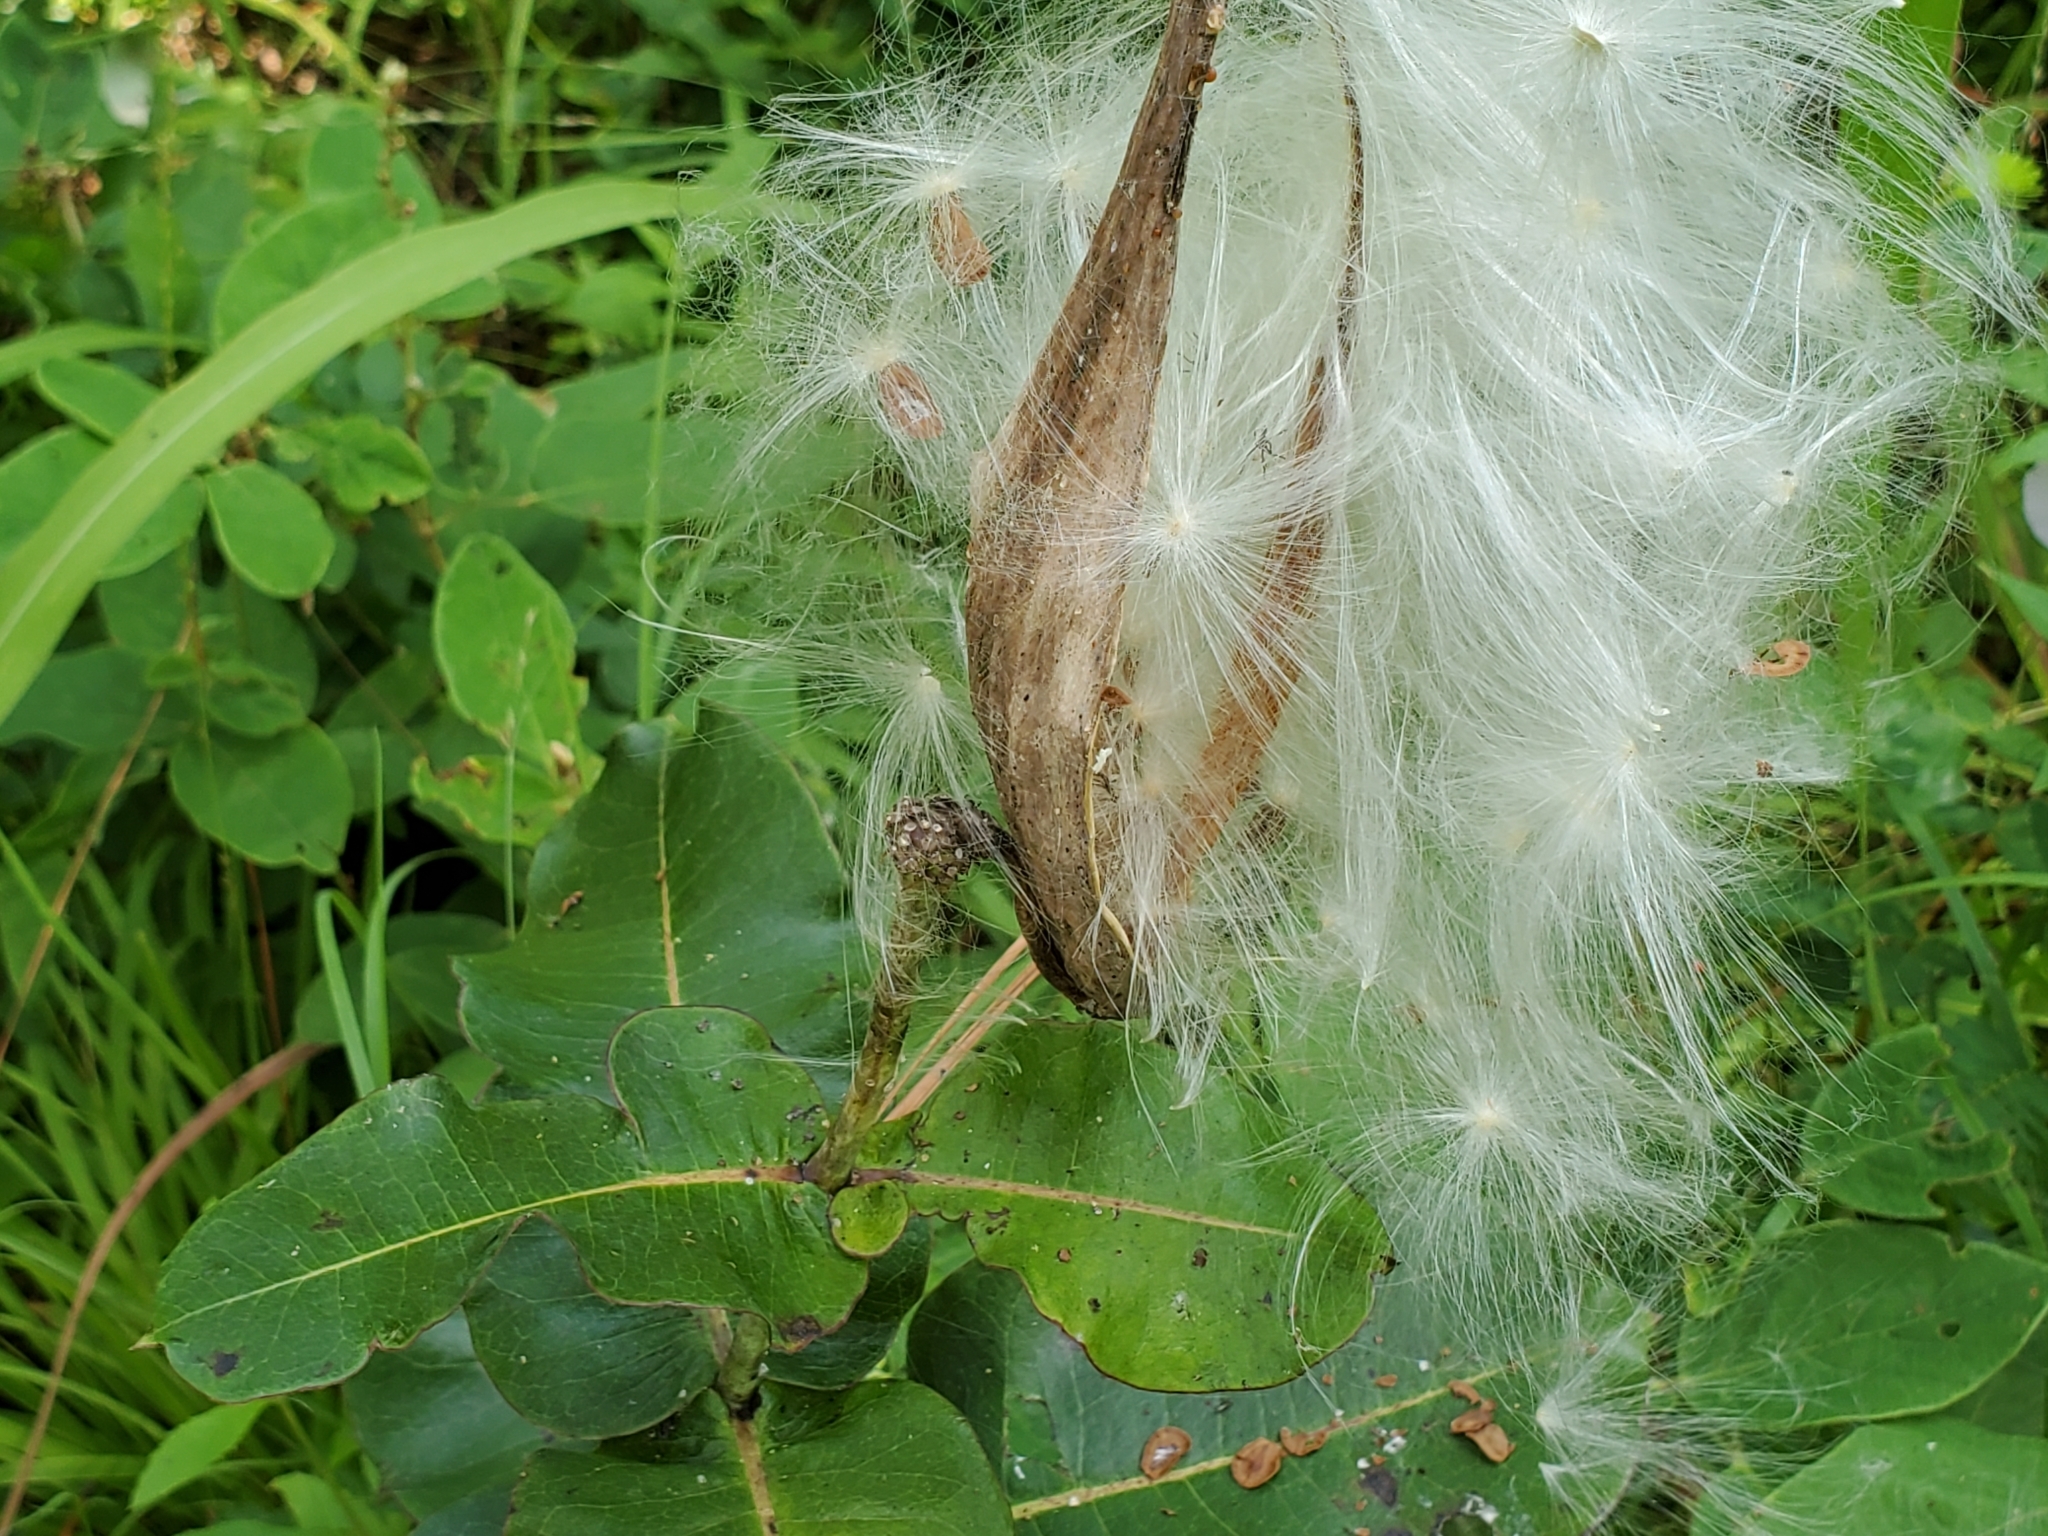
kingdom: Plantae
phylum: Tracheophyta
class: Magnoliopsida
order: Gentianales
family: Apocynaceae
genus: Asclepias
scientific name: Asclepias amplexicaulis
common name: Blunt-leaf milkweed
